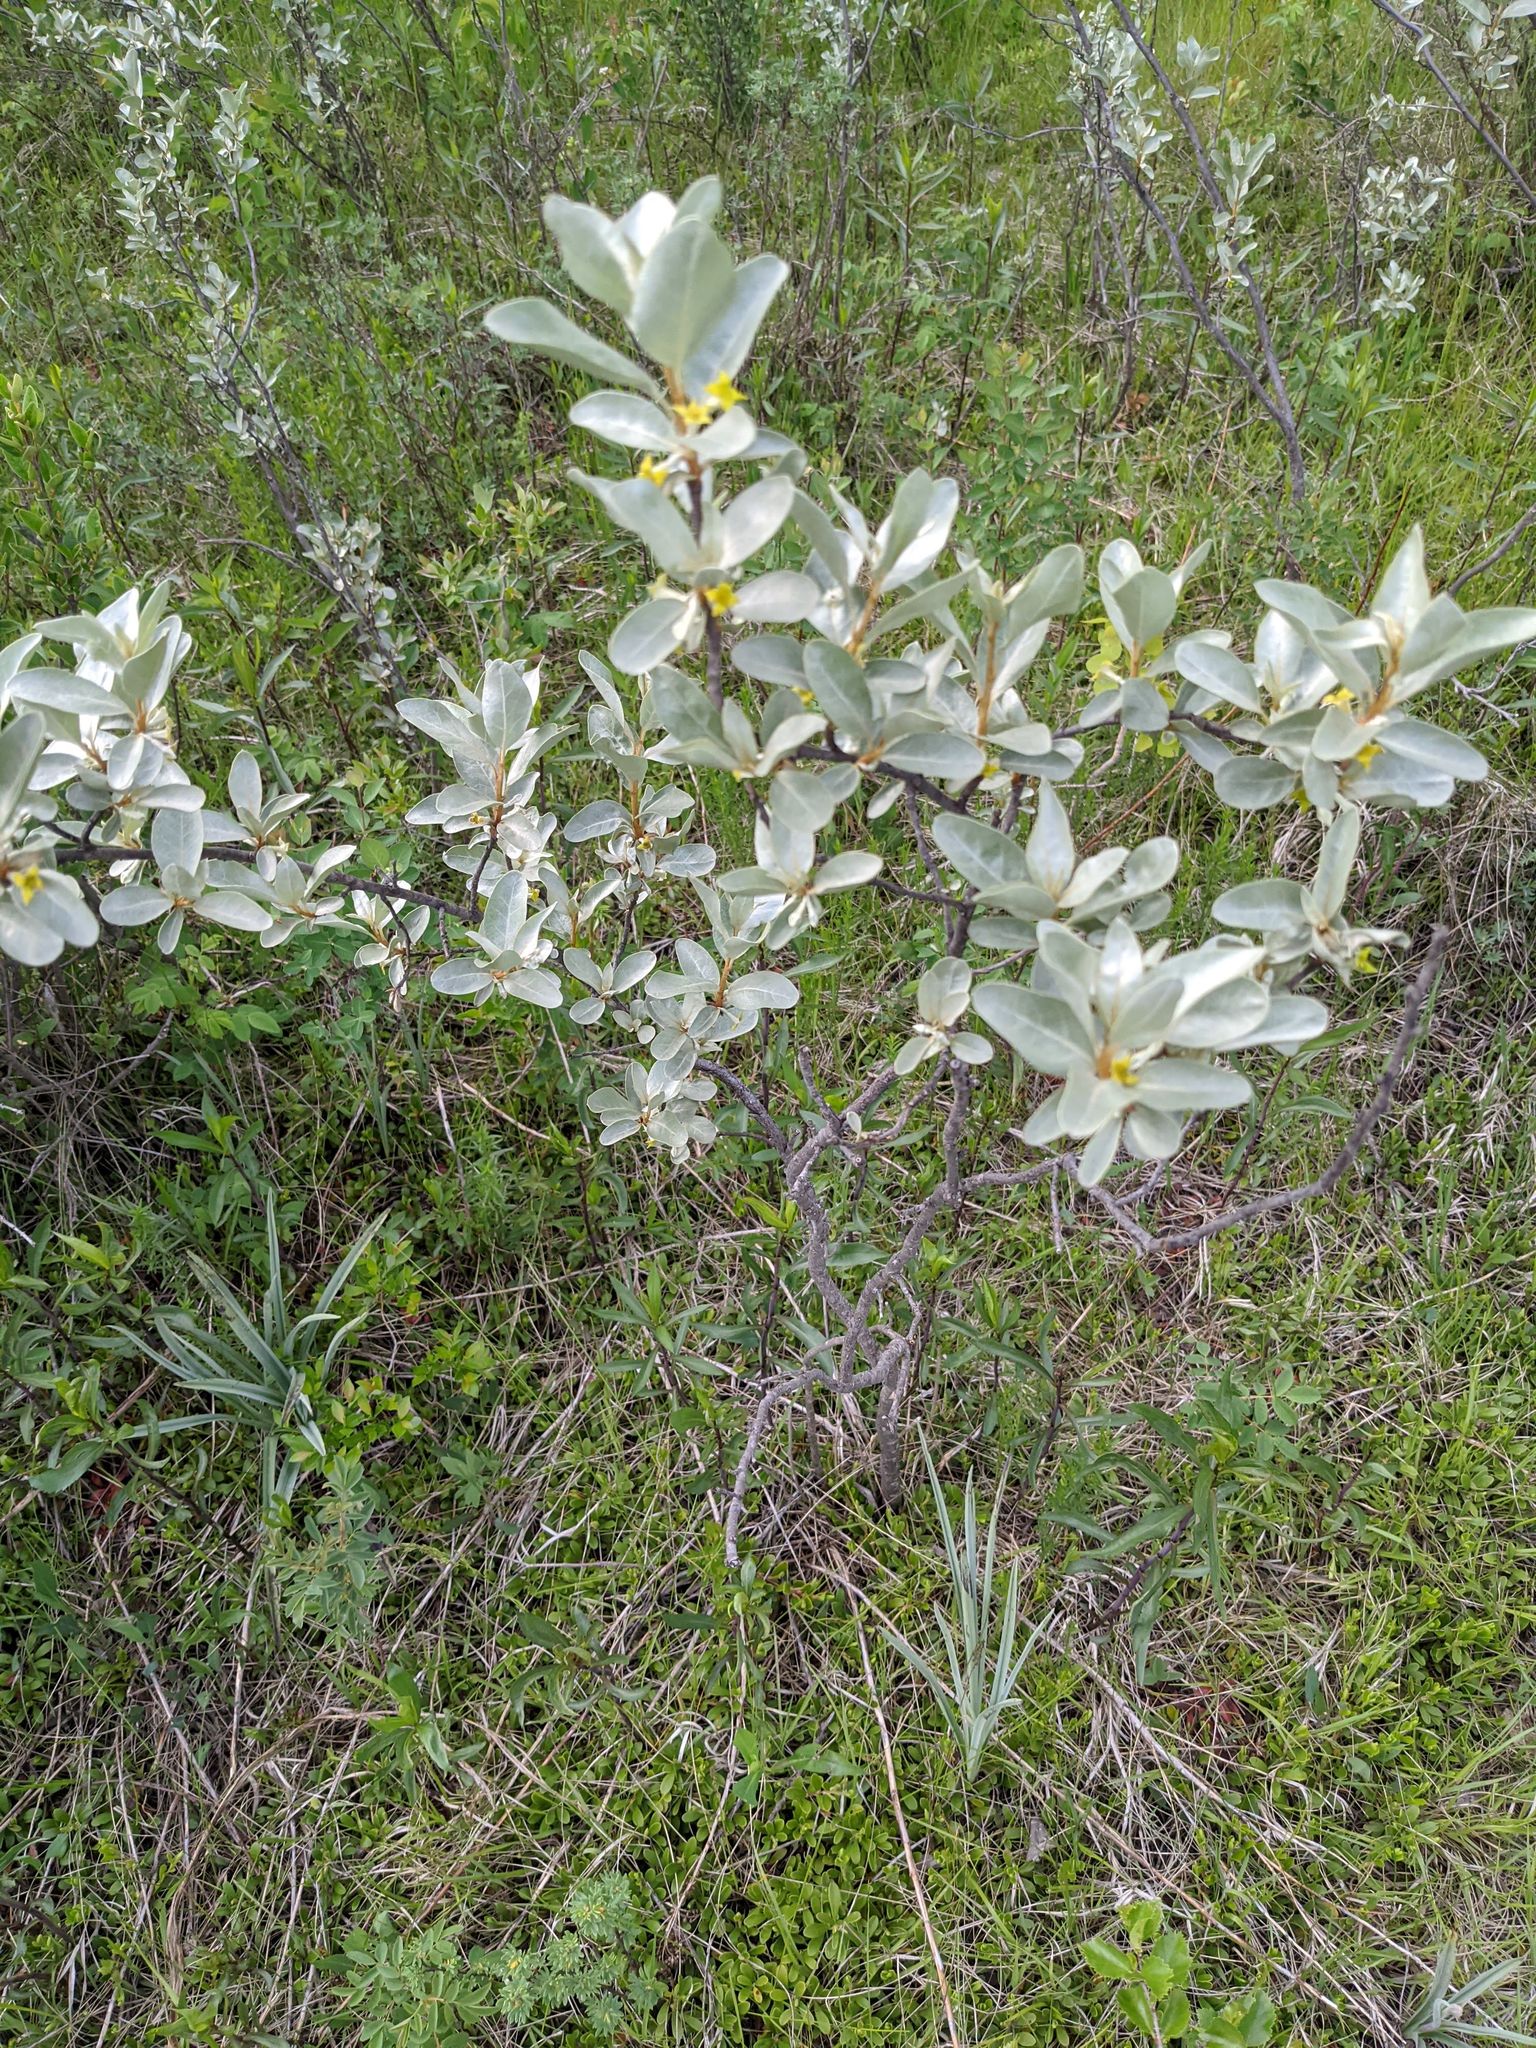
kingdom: Plantae
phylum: Tracheophyta
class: Magnoliopsida
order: Rosales
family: Elaeagnaceae
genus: Elaeagnus
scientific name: Elaeagnus commutata
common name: Silverberry
